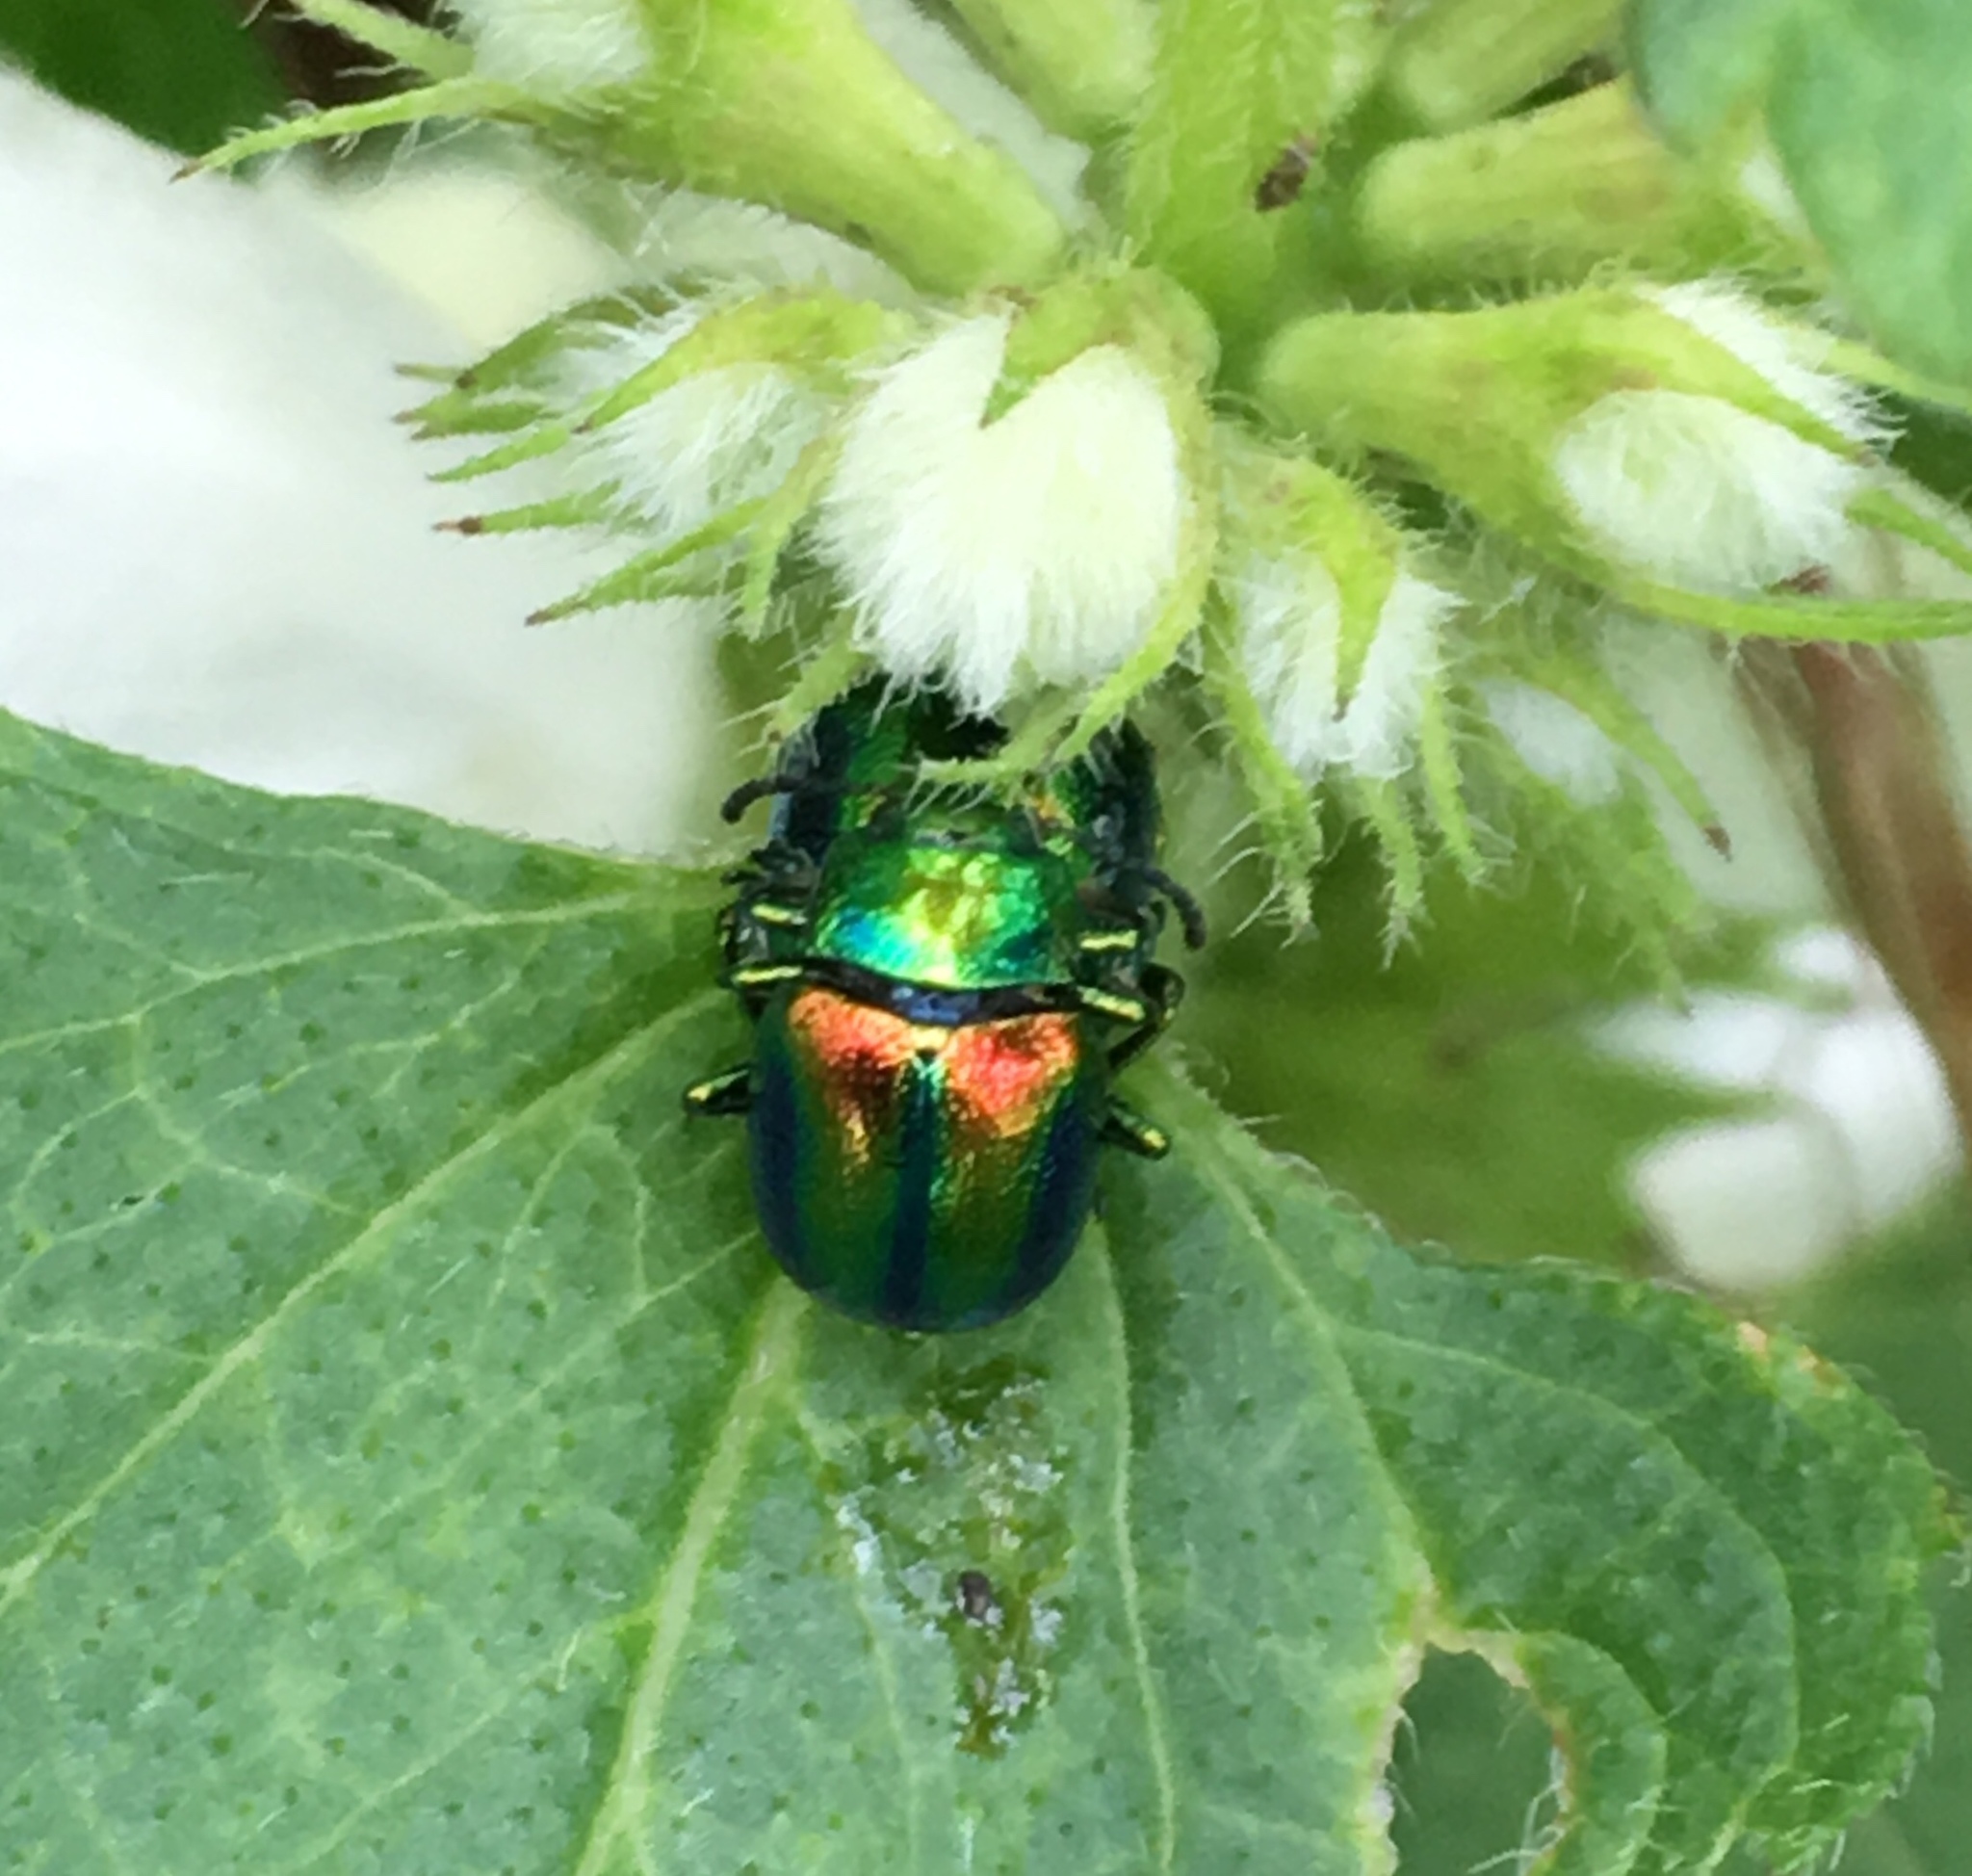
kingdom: Animalia
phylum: Arthropoda
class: Insecta
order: Coleoptera
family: Chrysomelidae
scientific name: Chrysomelidae
